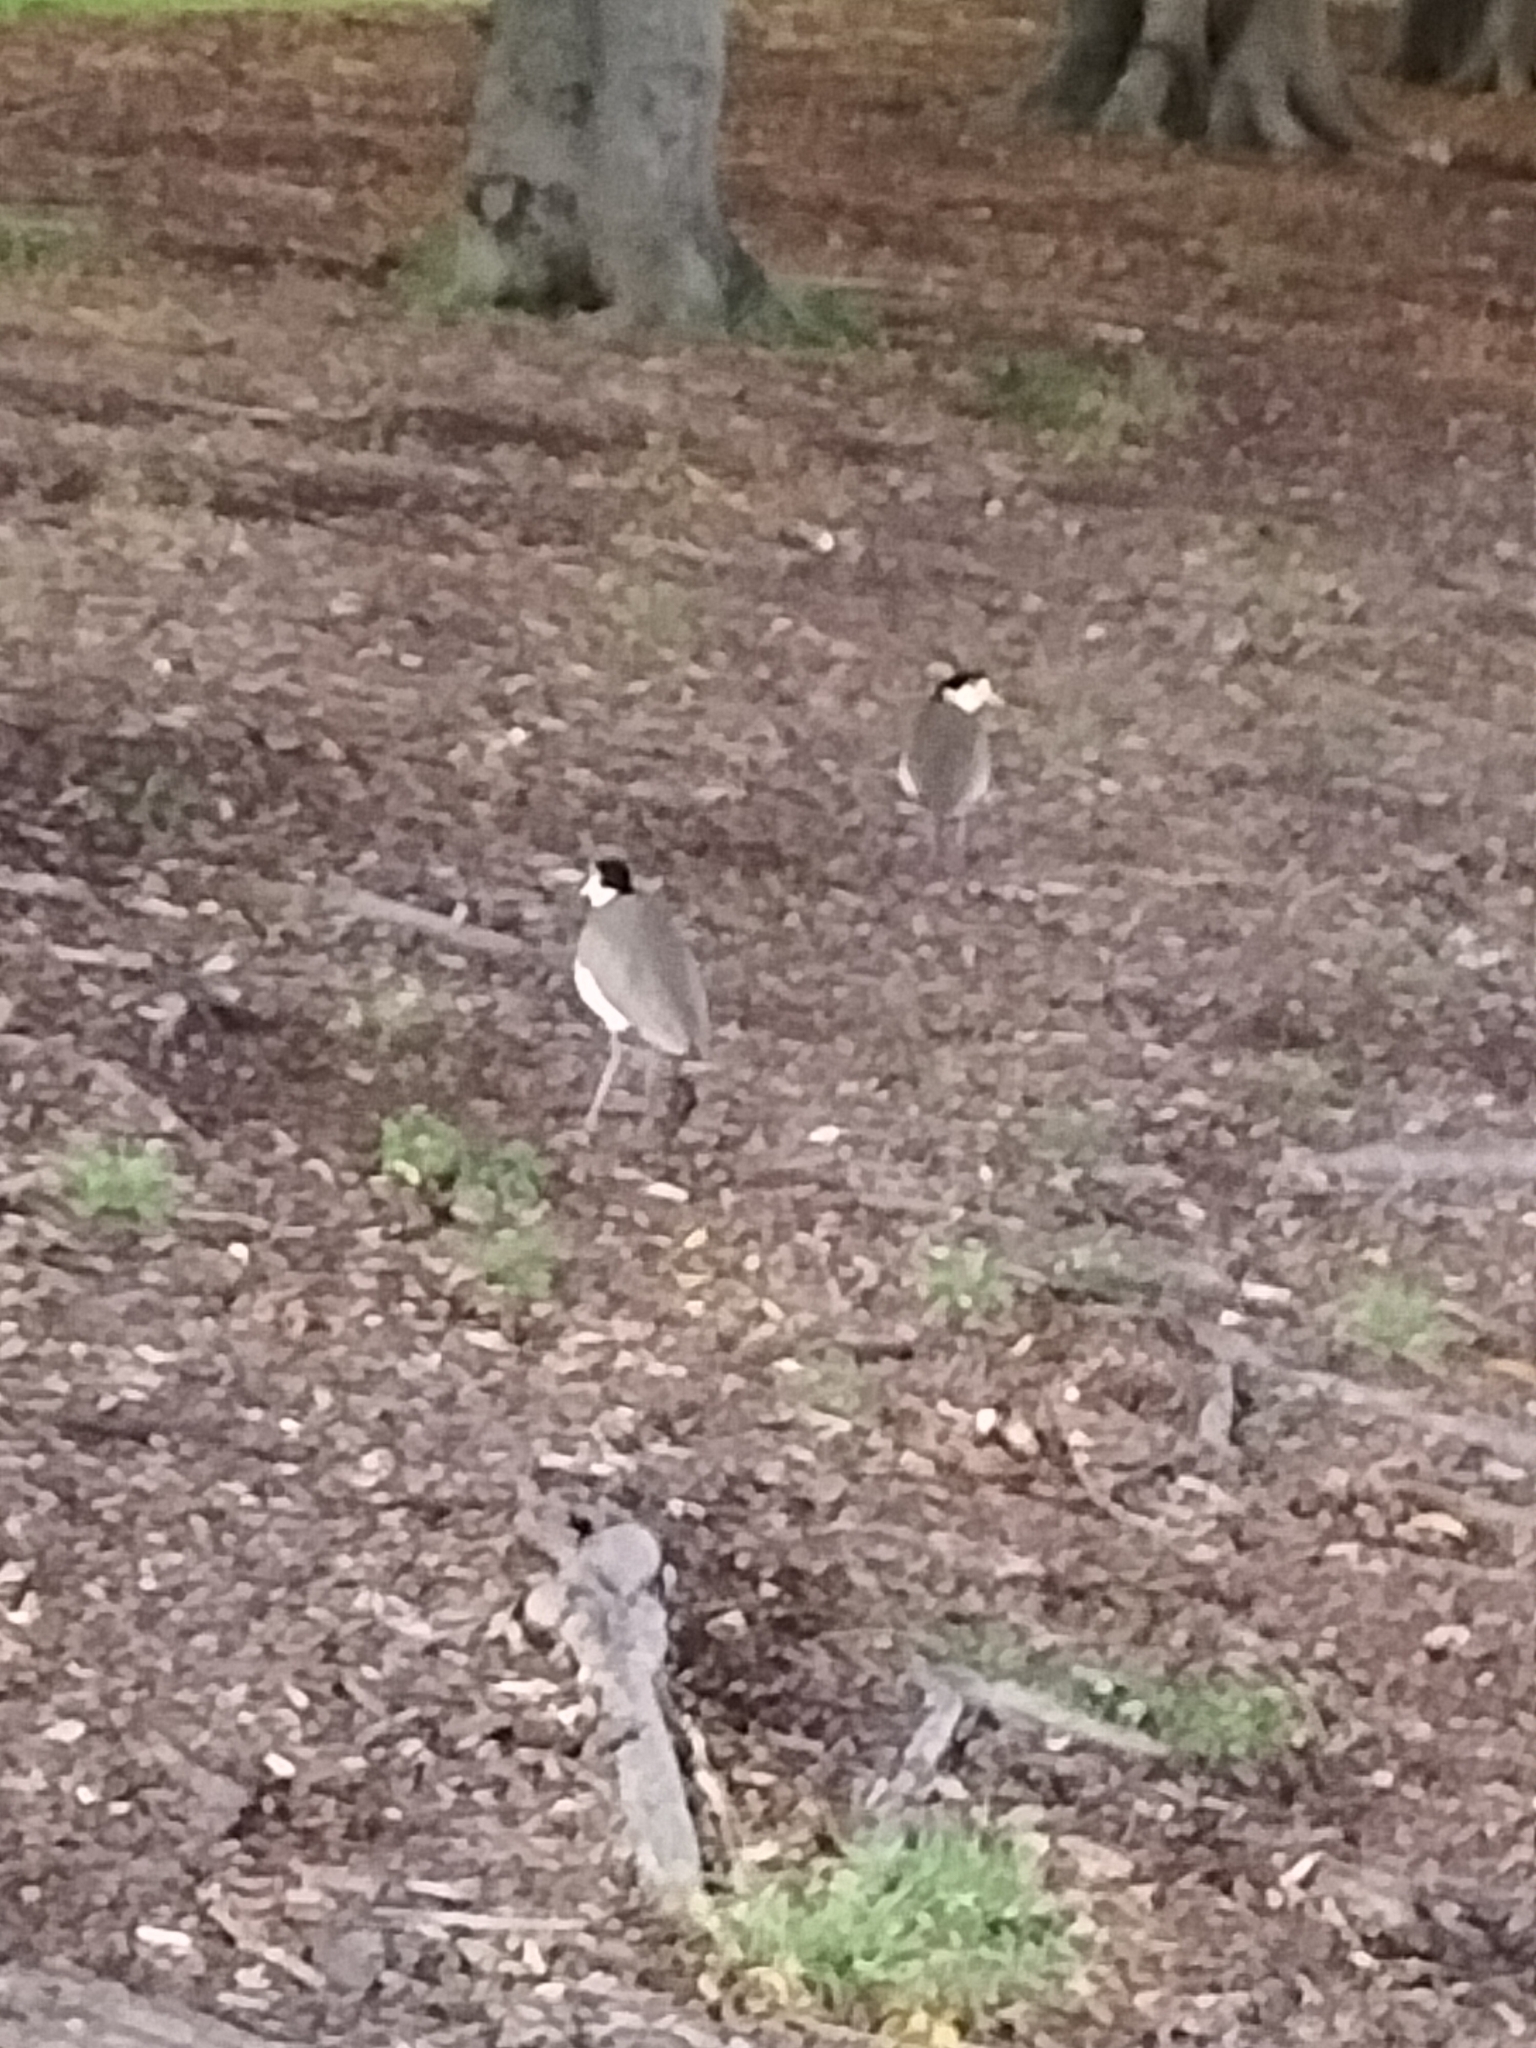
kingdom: Animalia
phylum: Chordata
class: Aves
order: Charadriiformes
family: Charadriidae
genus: Vanellus
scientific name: Vanellus miles
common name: Masked lapwing
